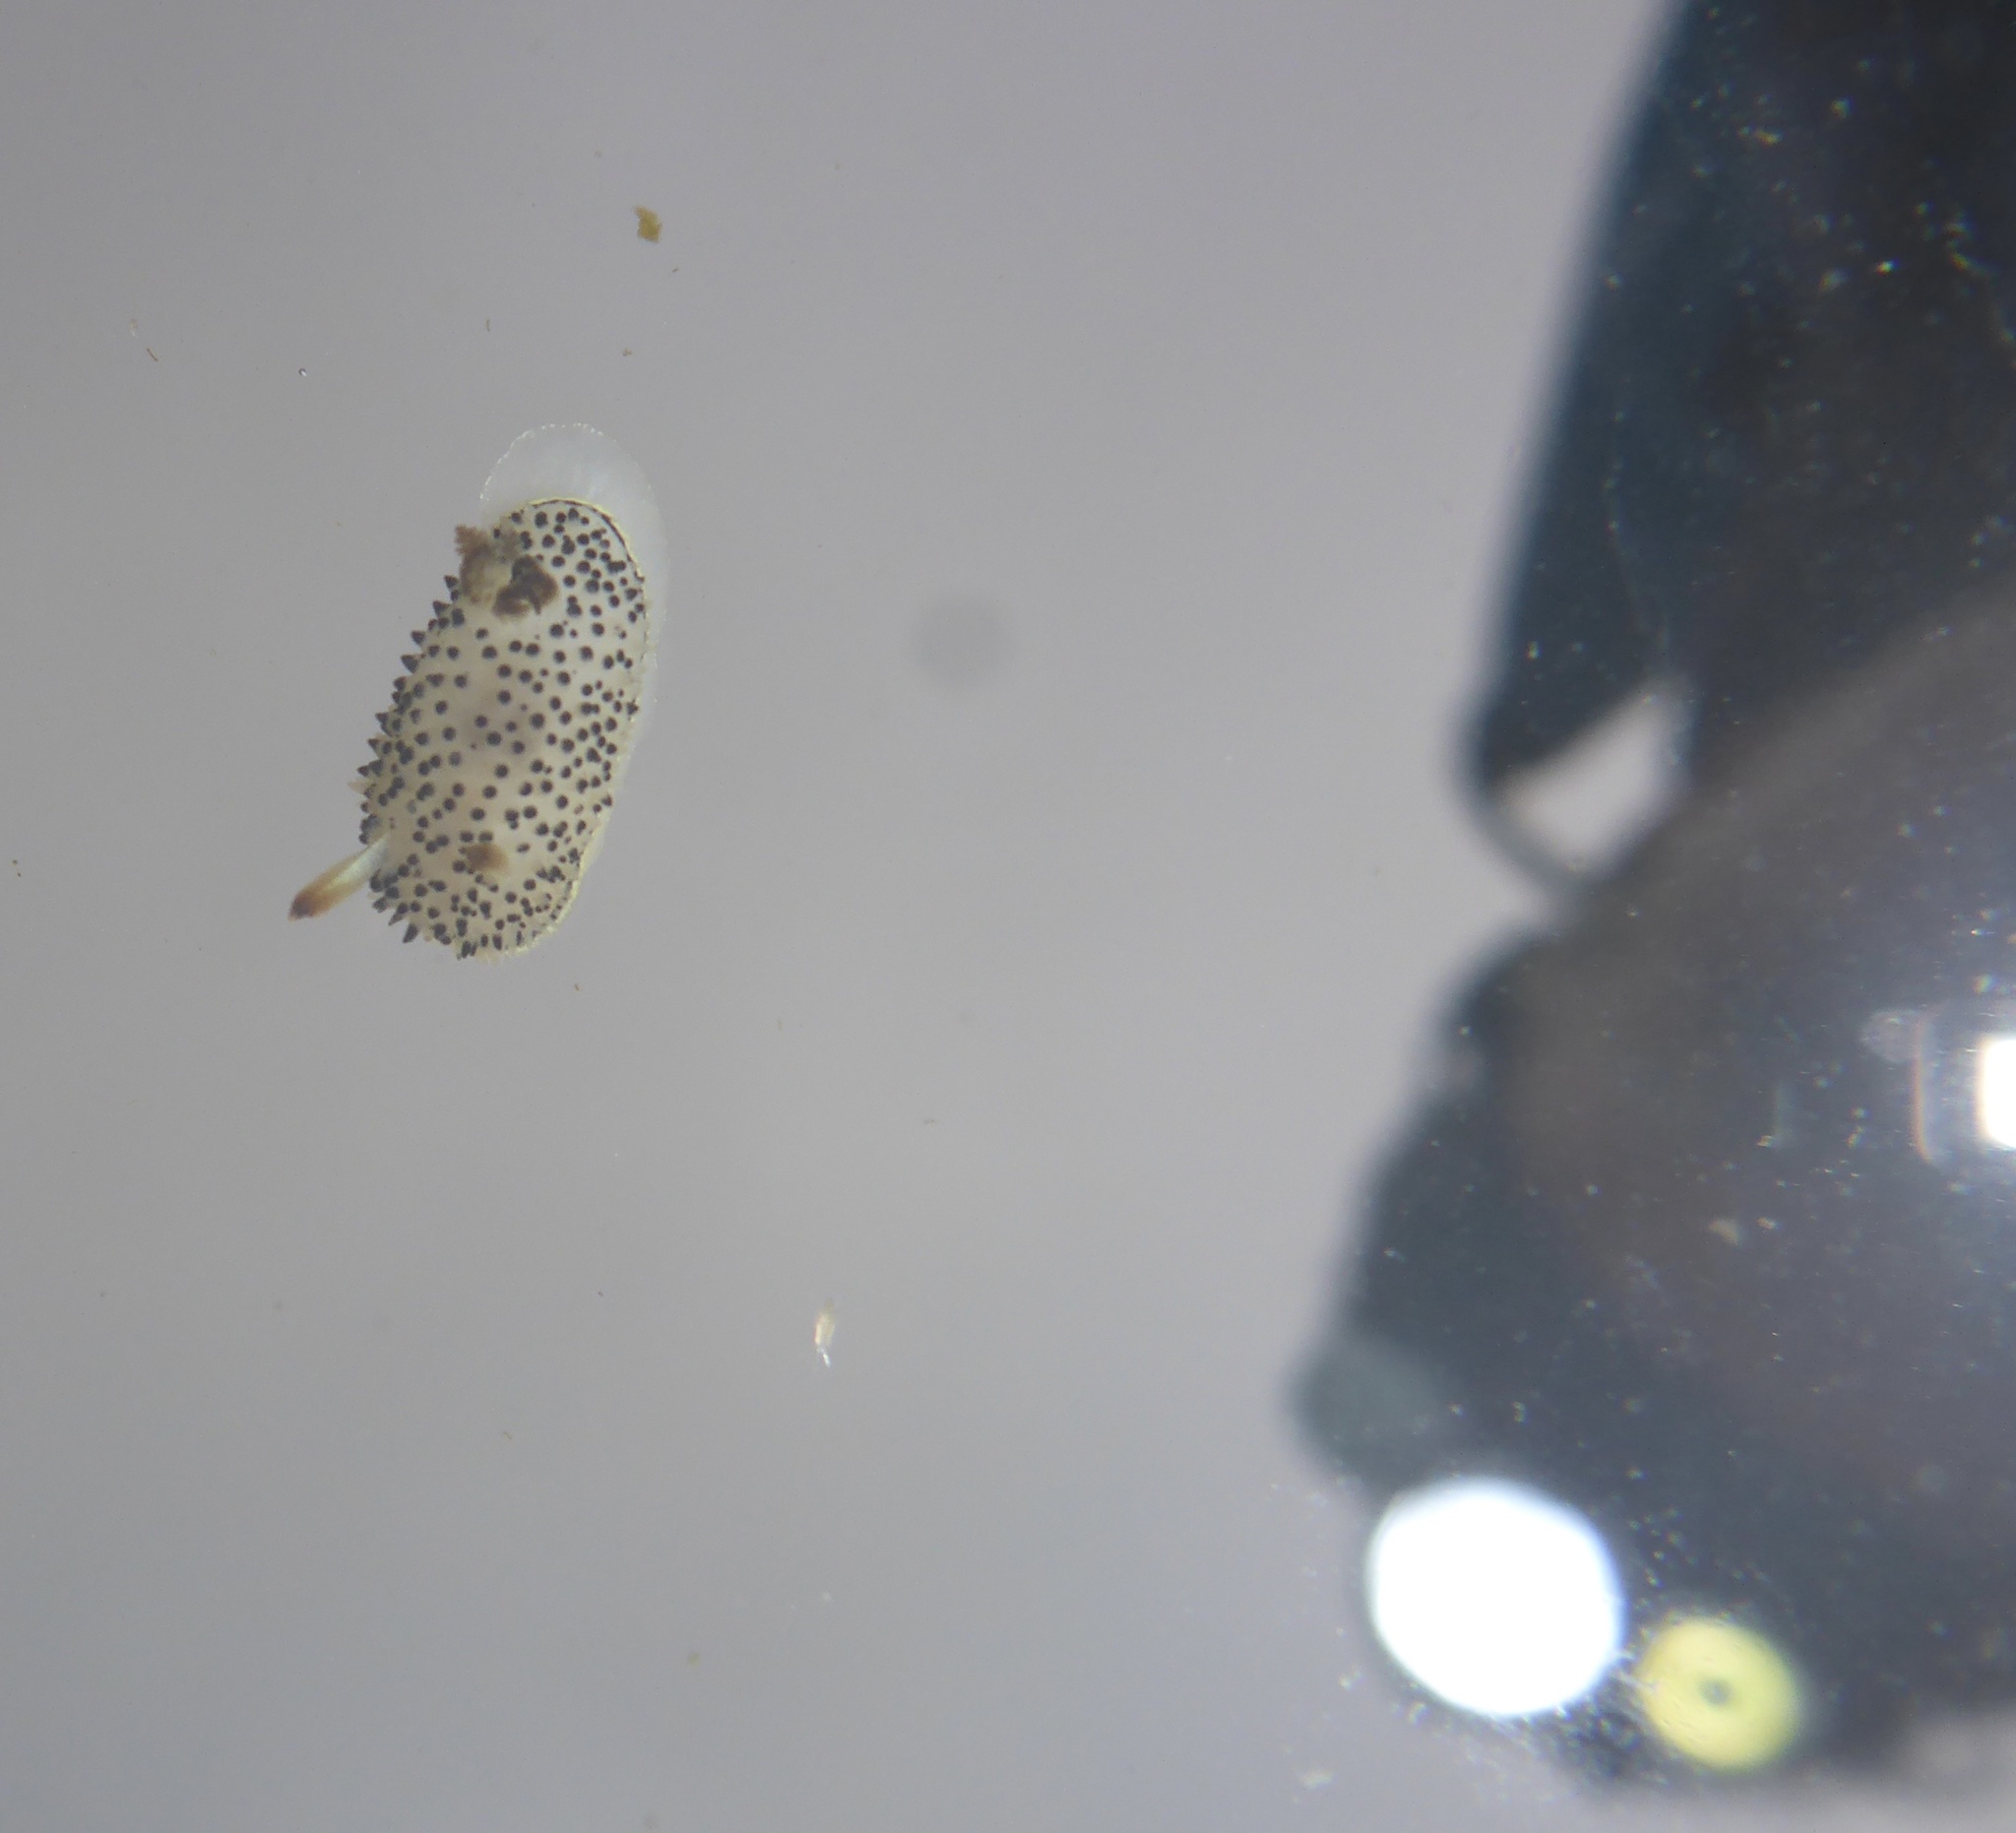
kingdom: Animalia
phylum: Mollusca
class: Gastropoda
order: Nudibranchia
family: Onchidorididae
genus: Acanthodoris
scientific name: Acanthodoris rhodoceras
